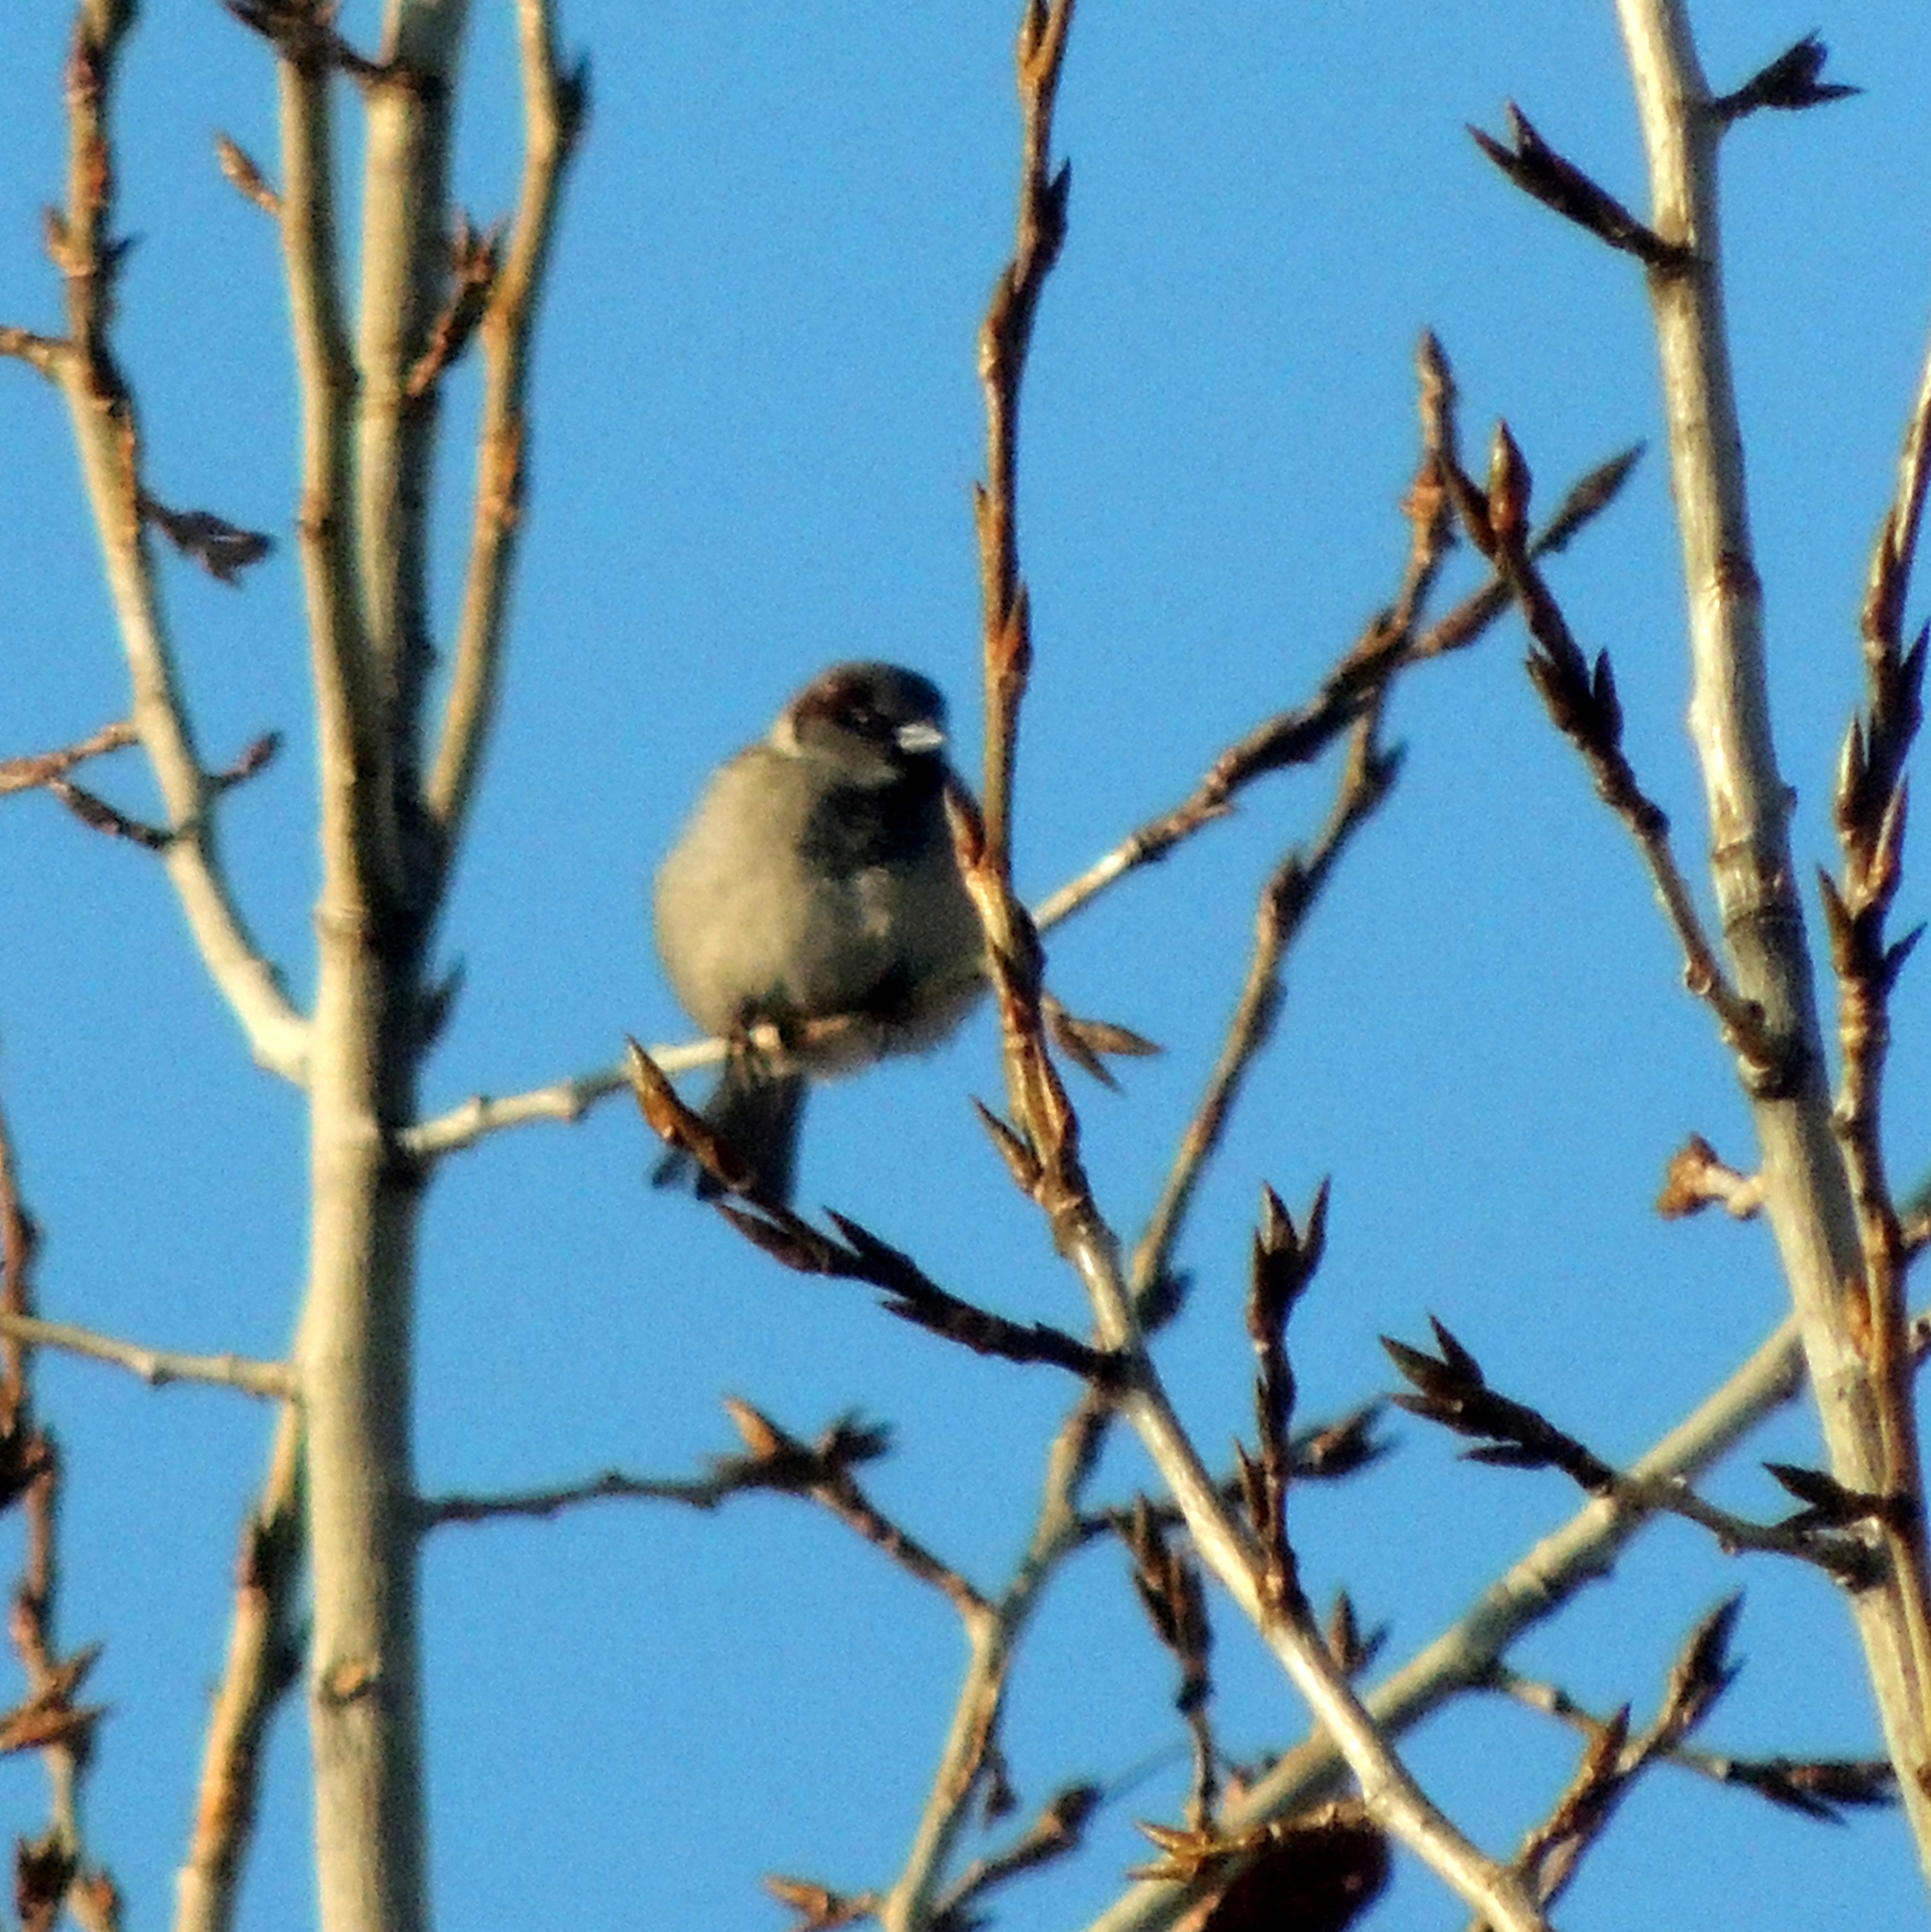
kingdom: Animalia
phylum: Chordata
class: Aves
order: Passeriformes
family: Passeridae
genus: Passer
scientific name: Passer domesticus
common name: House sparrow
